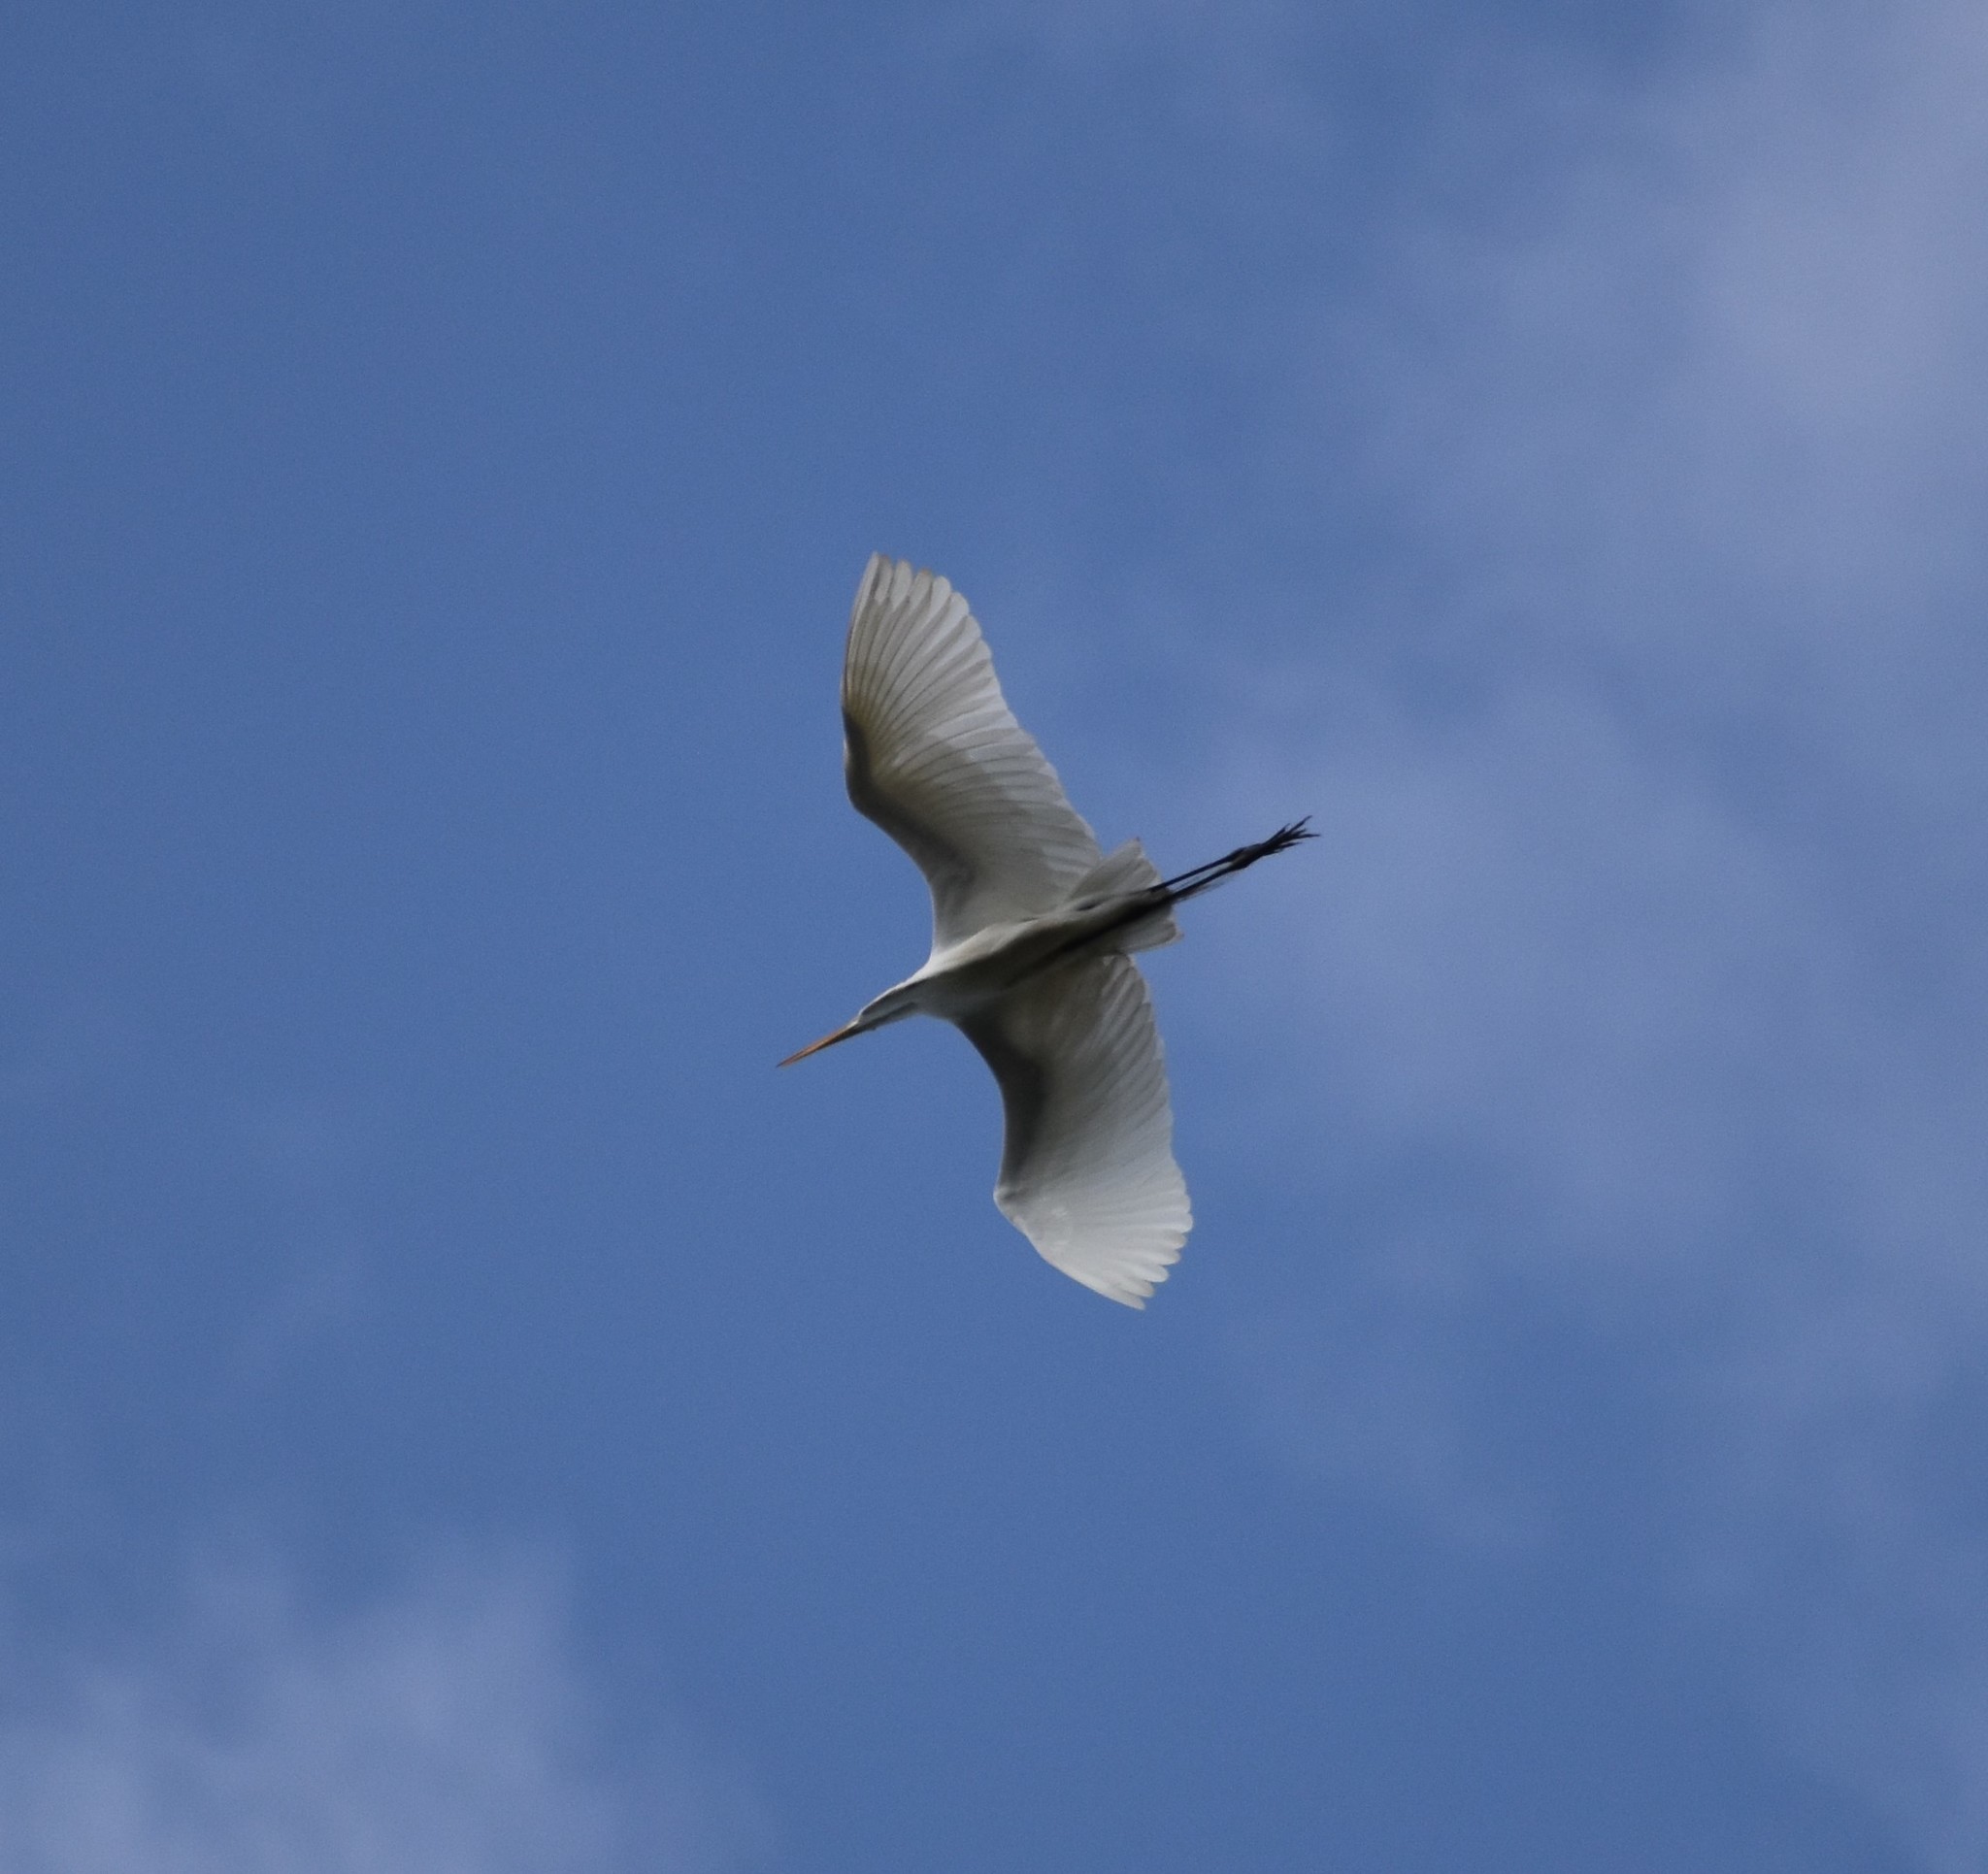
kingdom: Animalia
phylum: Chordata
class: Aves
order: Pelecaniformes
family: Ardeidae
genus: Ardea
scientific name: Ardea alba
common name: Great egret
